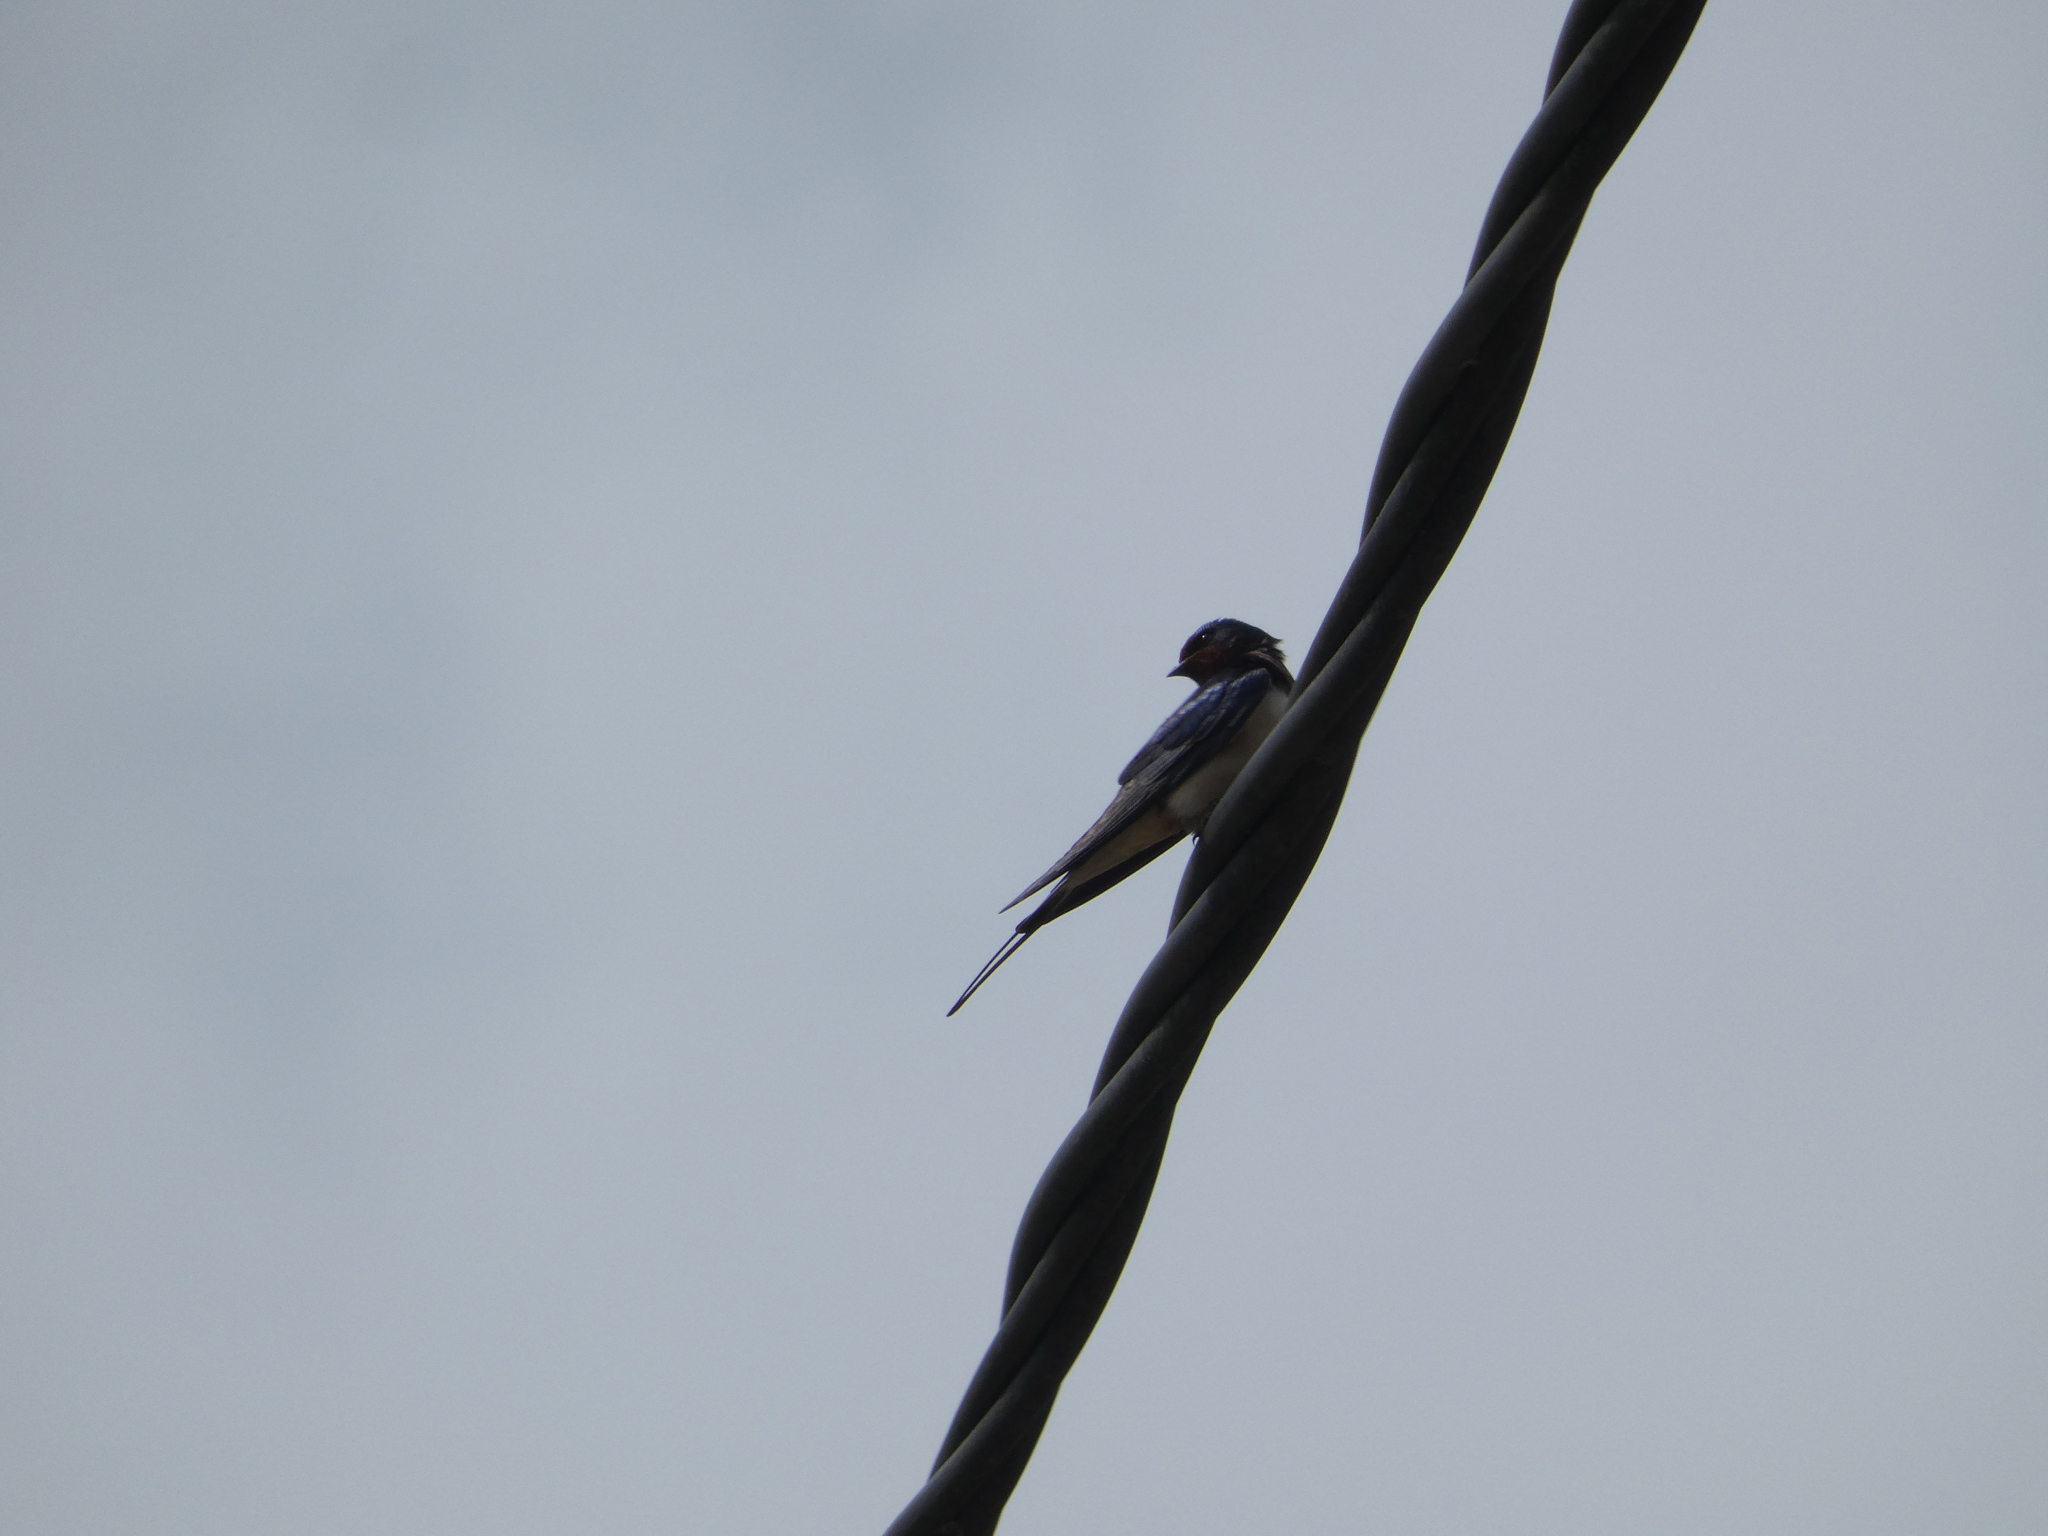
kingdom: Animalia
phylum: Chordata
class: Aves
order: Passeriformes
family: Hirundinidae
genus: Hirundo
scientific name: Hirundo rustica
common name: Barn swallow
